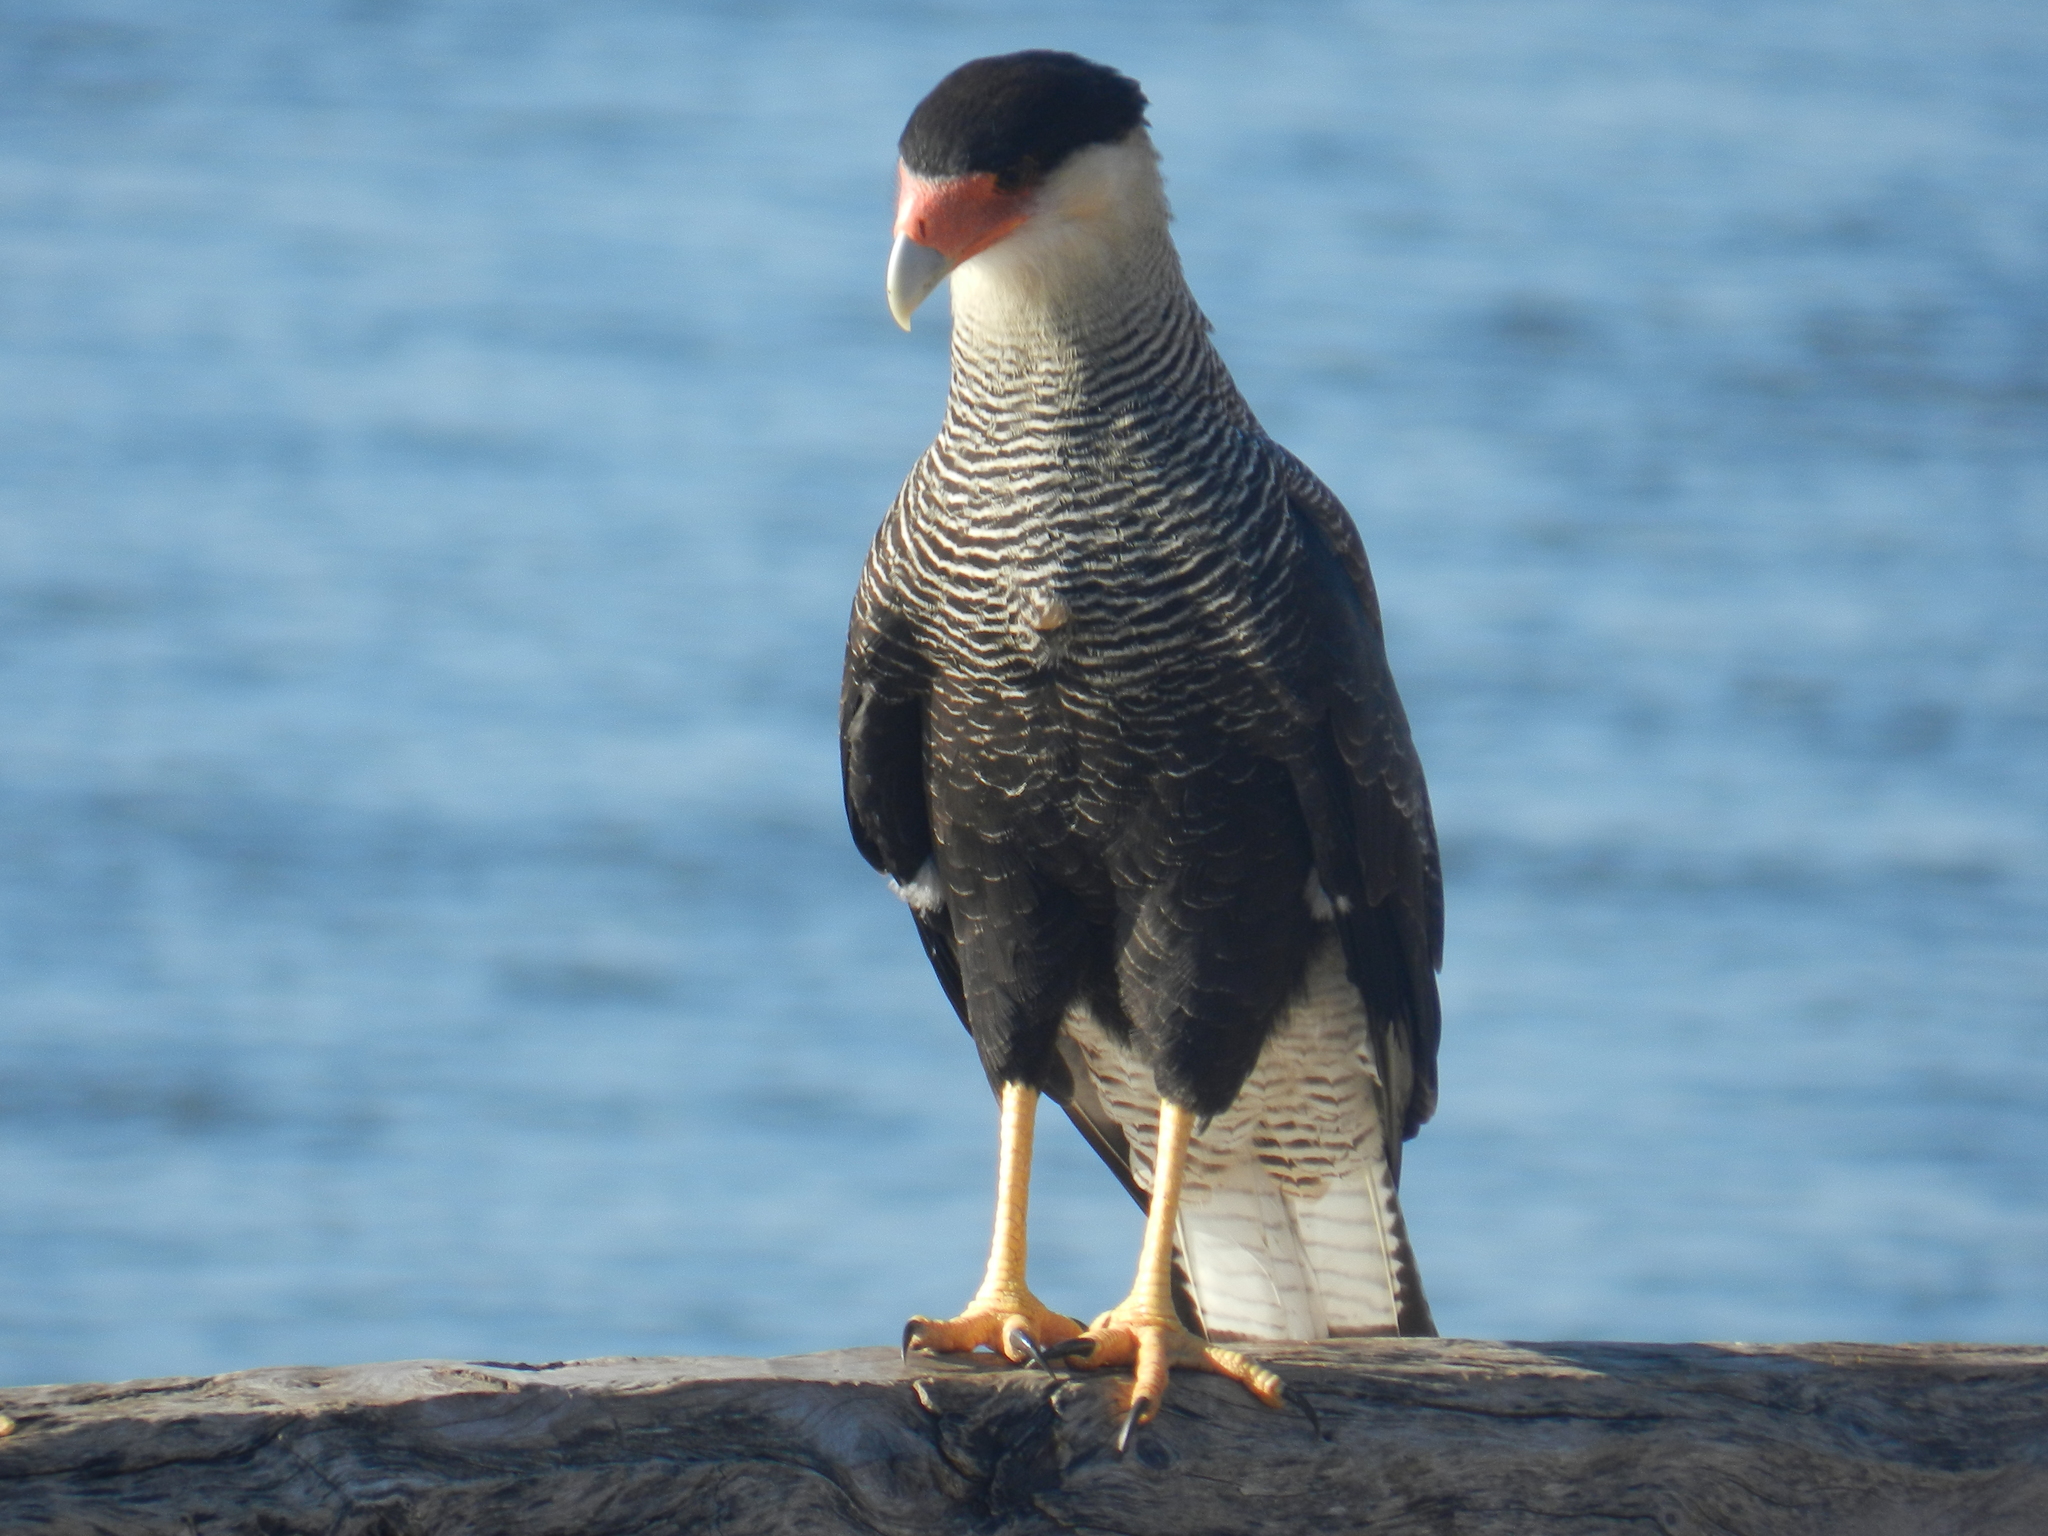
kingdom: Animalia
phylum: Chordata
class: Aves
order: Falconiformes
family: Falconidae
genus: Caracara
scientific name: Caracara plancus
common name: Southern caracara
